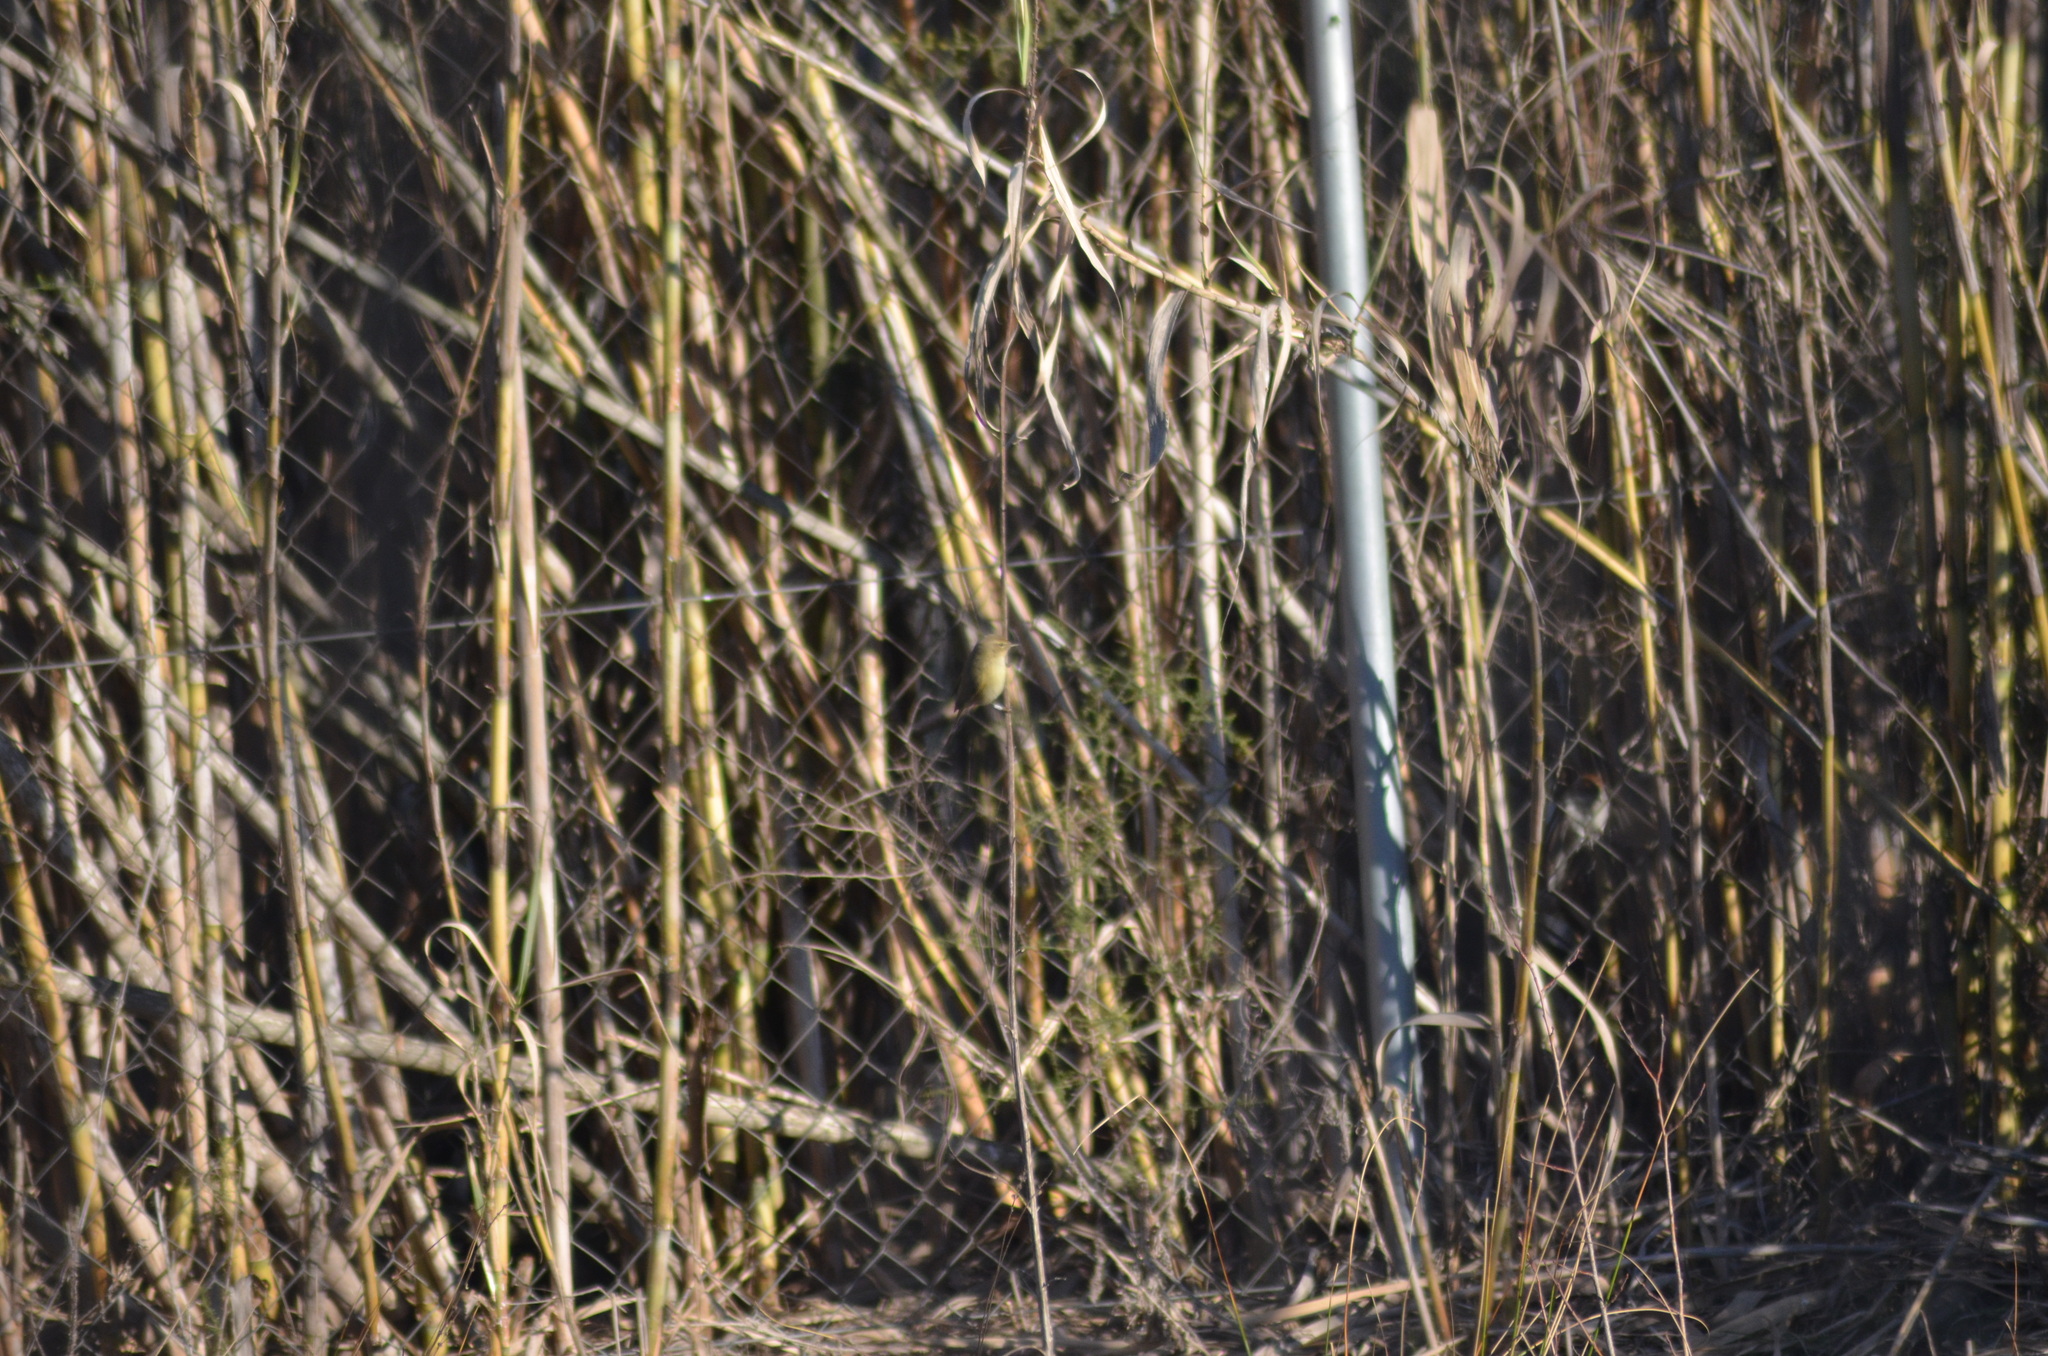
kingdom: Animalia
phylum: Chordata
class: Aves
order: Passeriformes
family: Phylloscopidae
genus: Phylloscopus
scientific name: Phylloscopus collybita
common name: Common chiffchaff
